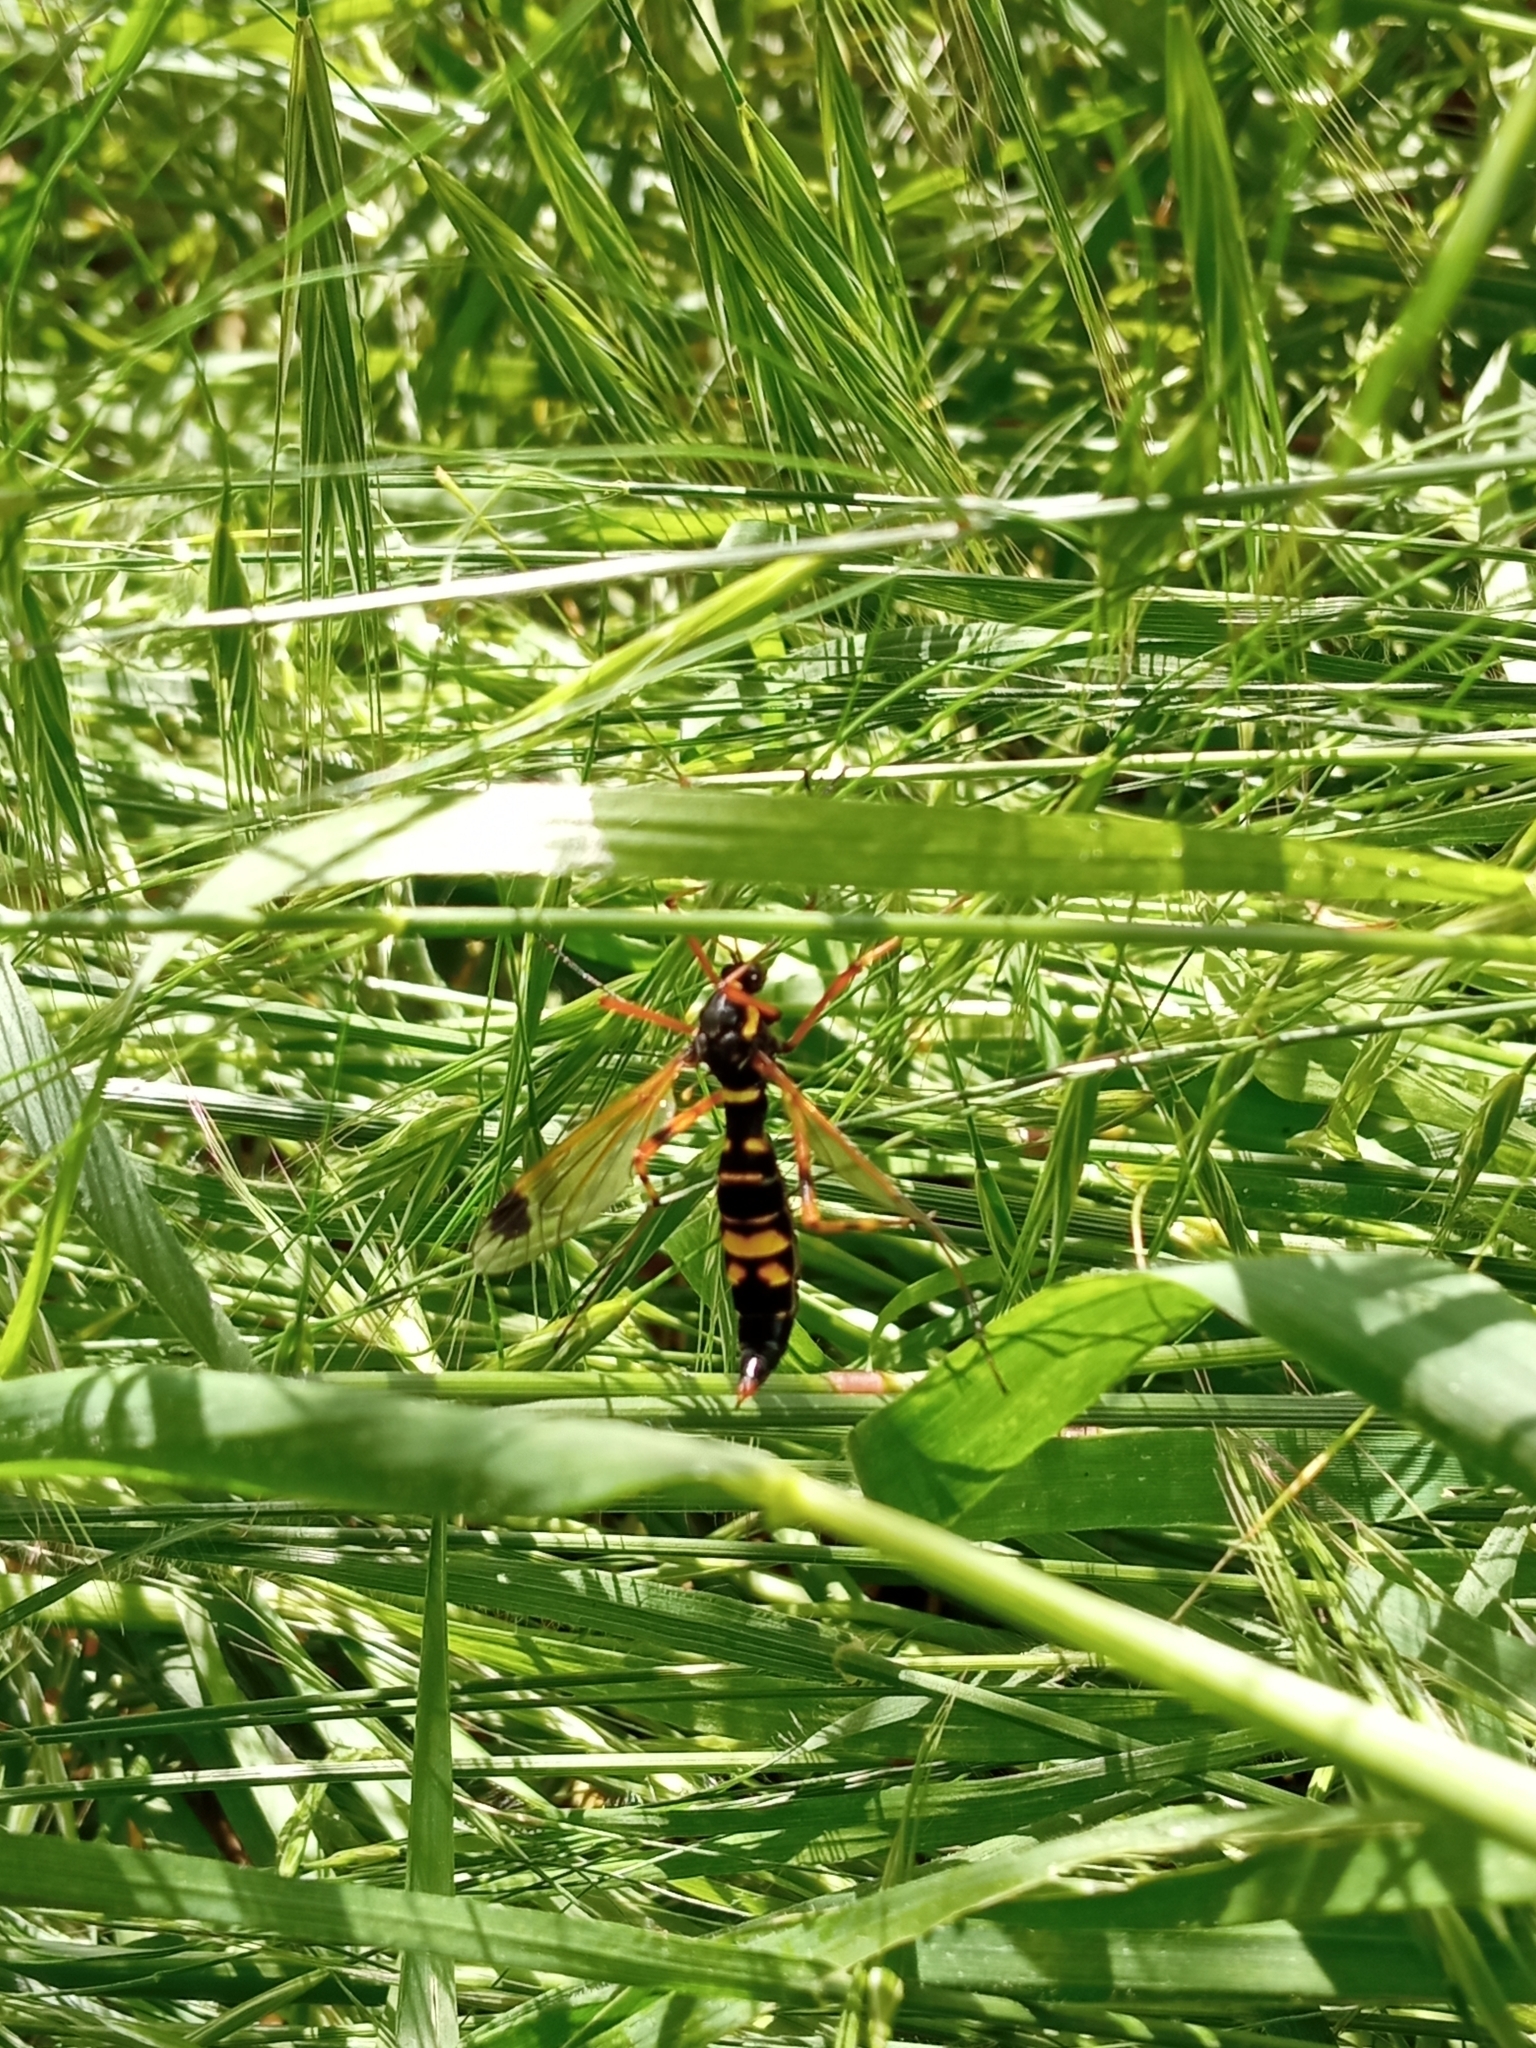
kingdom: Animalia
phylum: Arthropoda
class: Insecta
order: Diptera
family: Tipulidae
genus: Ctenophora
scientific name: Ctenophora festiva
